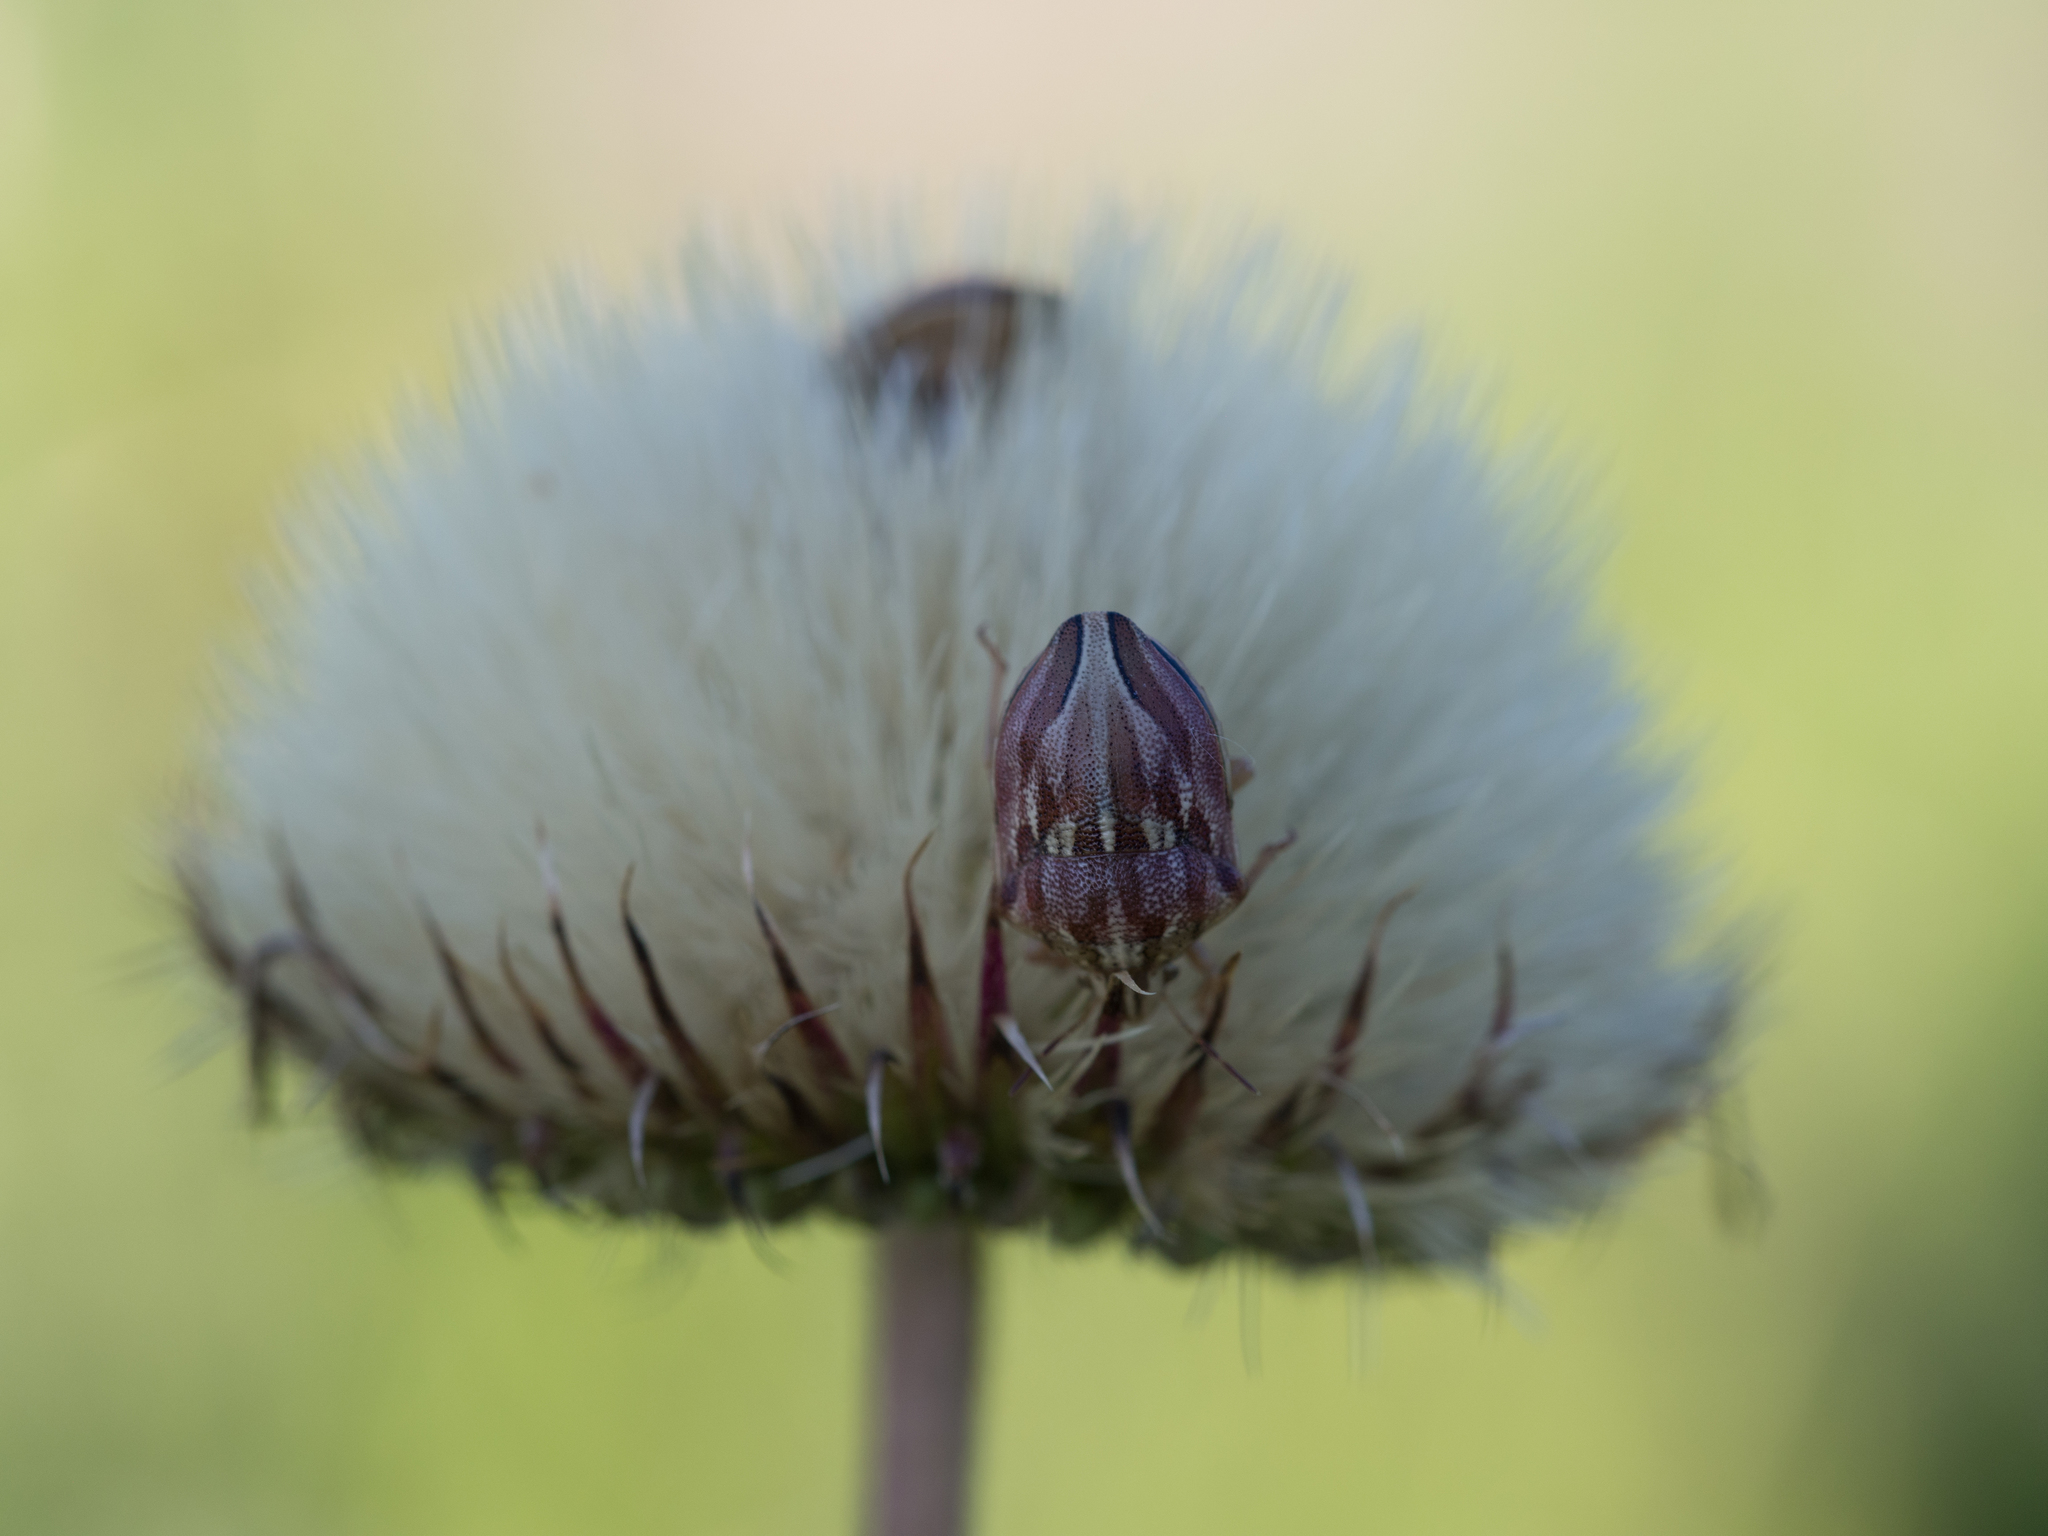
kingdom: Plantae
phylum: Tracheophyta
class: Magnoliopsida
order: Asterales
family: Asteraceae
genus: Jurinea
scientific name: Jurinea mollis
